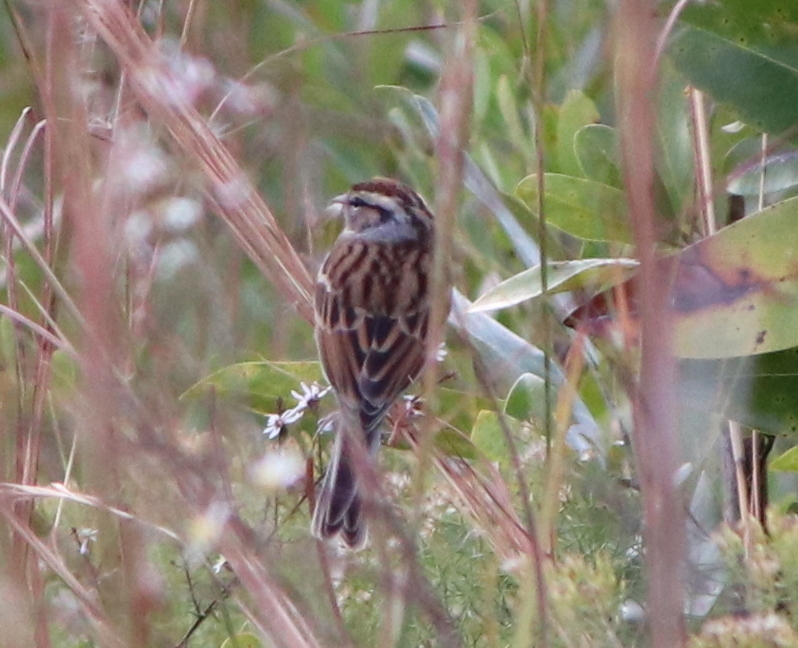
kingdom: Animalia
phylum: Chordata
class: Aves
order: Passeriformes
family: Passerellidae
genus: Spizella
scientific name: Spizella passerina
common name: Chipping sparrow
